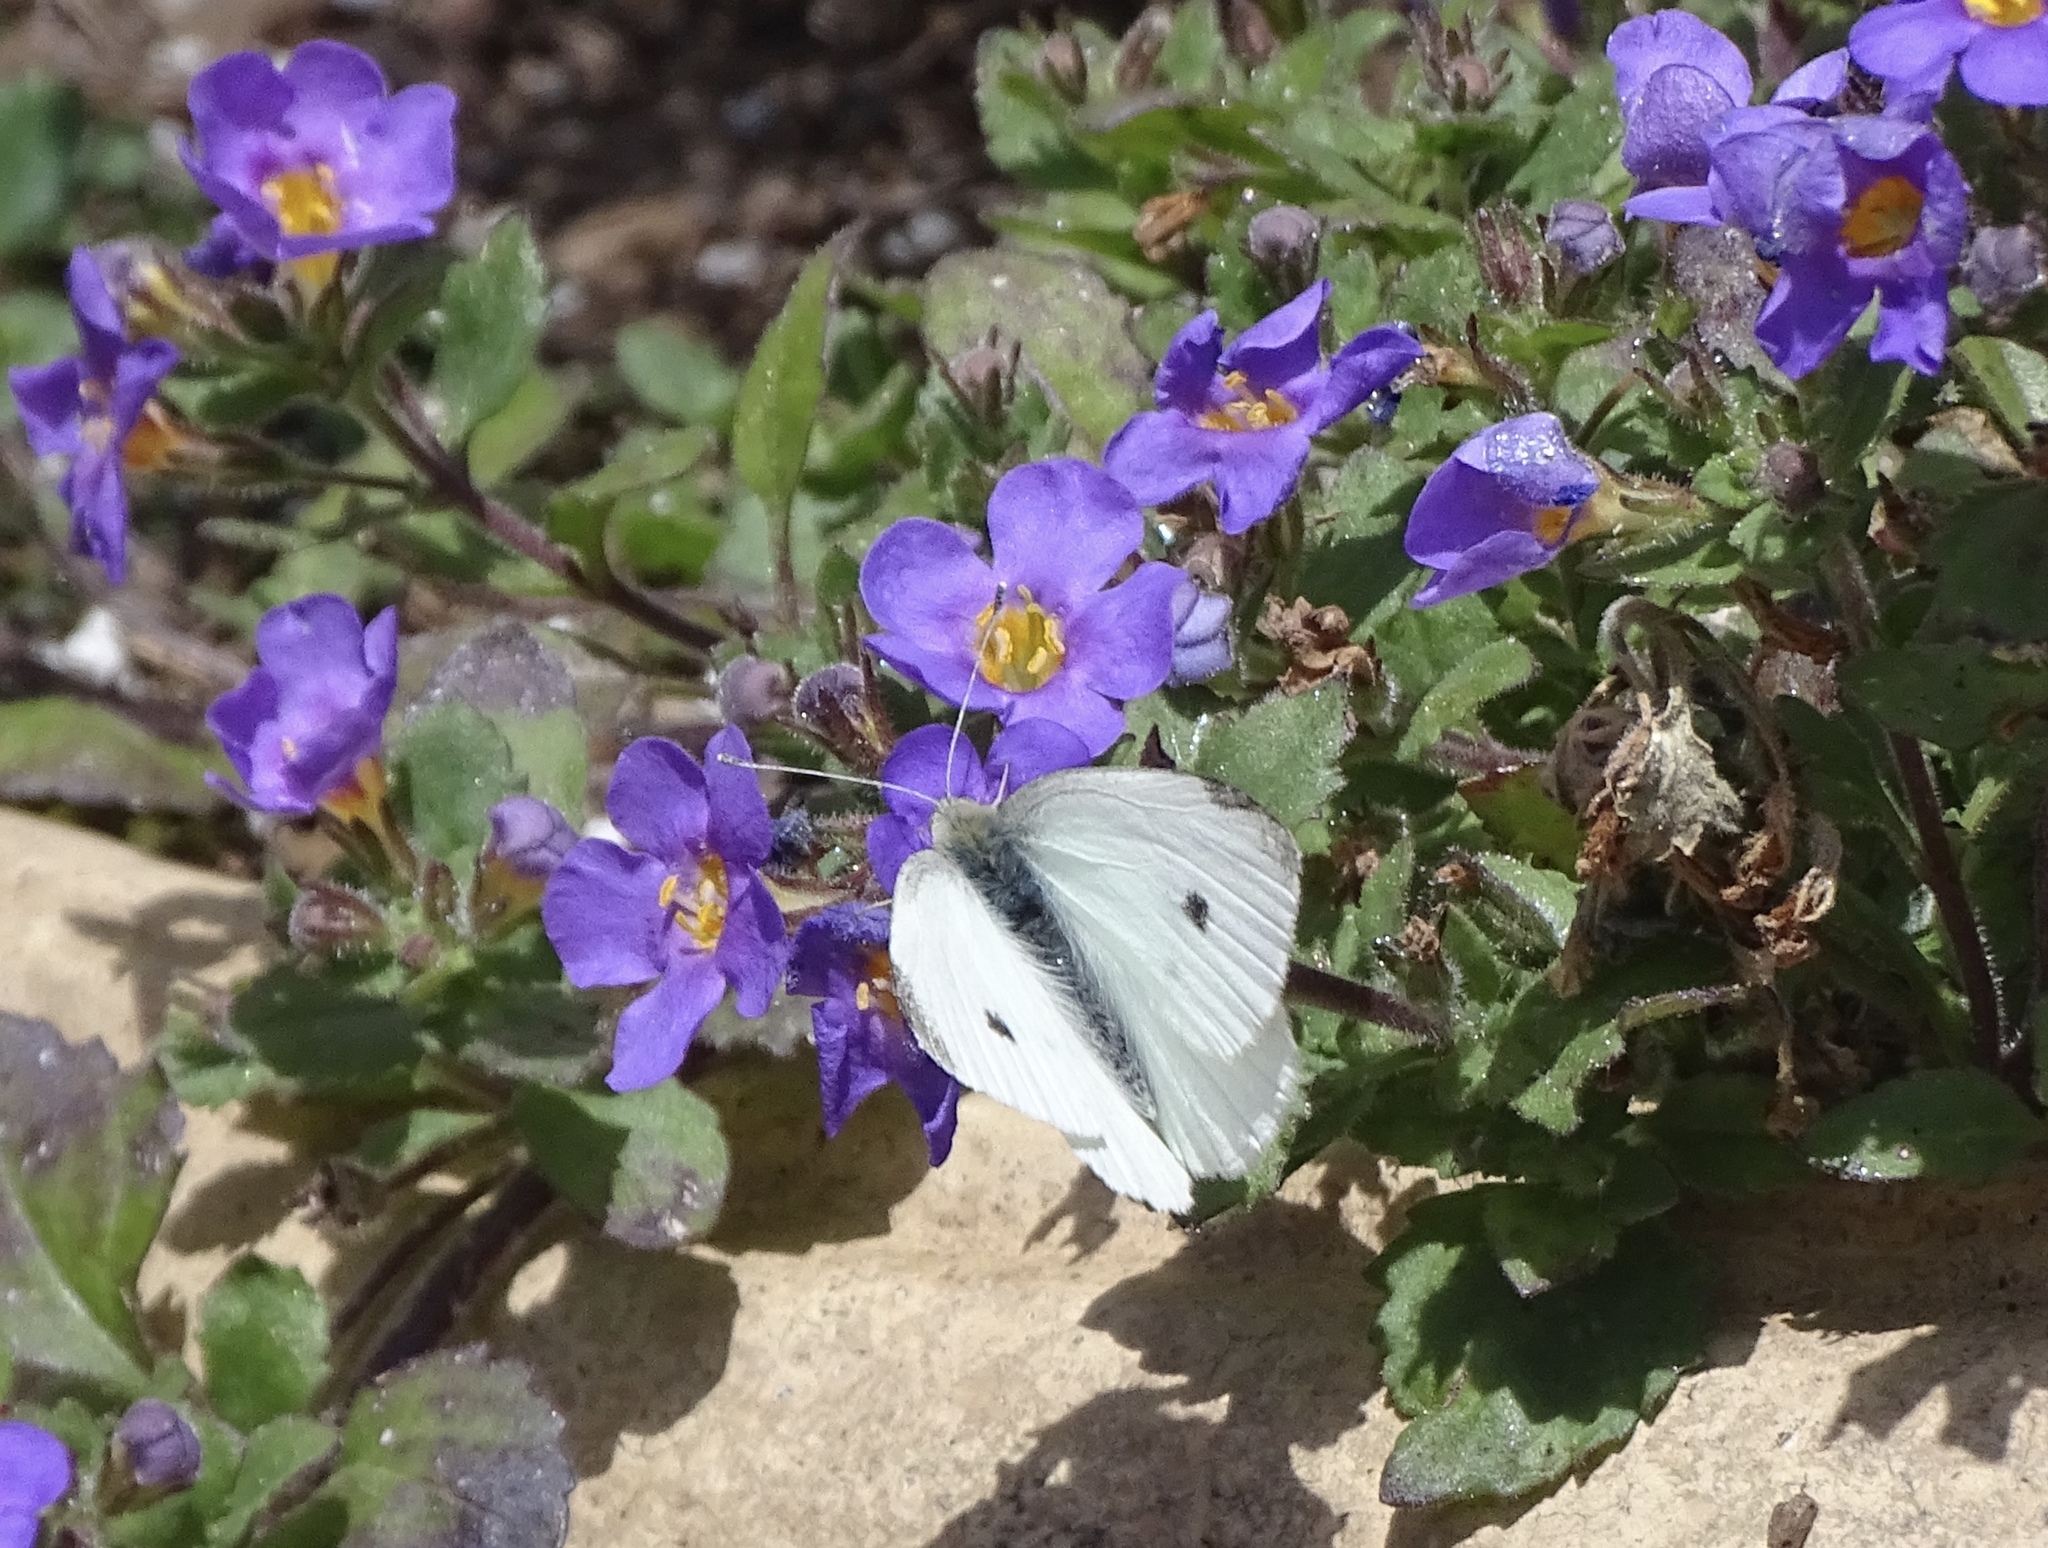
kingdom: Animalia
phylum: Arthropoda
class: Insecta
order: Lepidoptera
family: Pieridae
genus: Pieris
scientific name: Pieris rapae
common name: Small white
